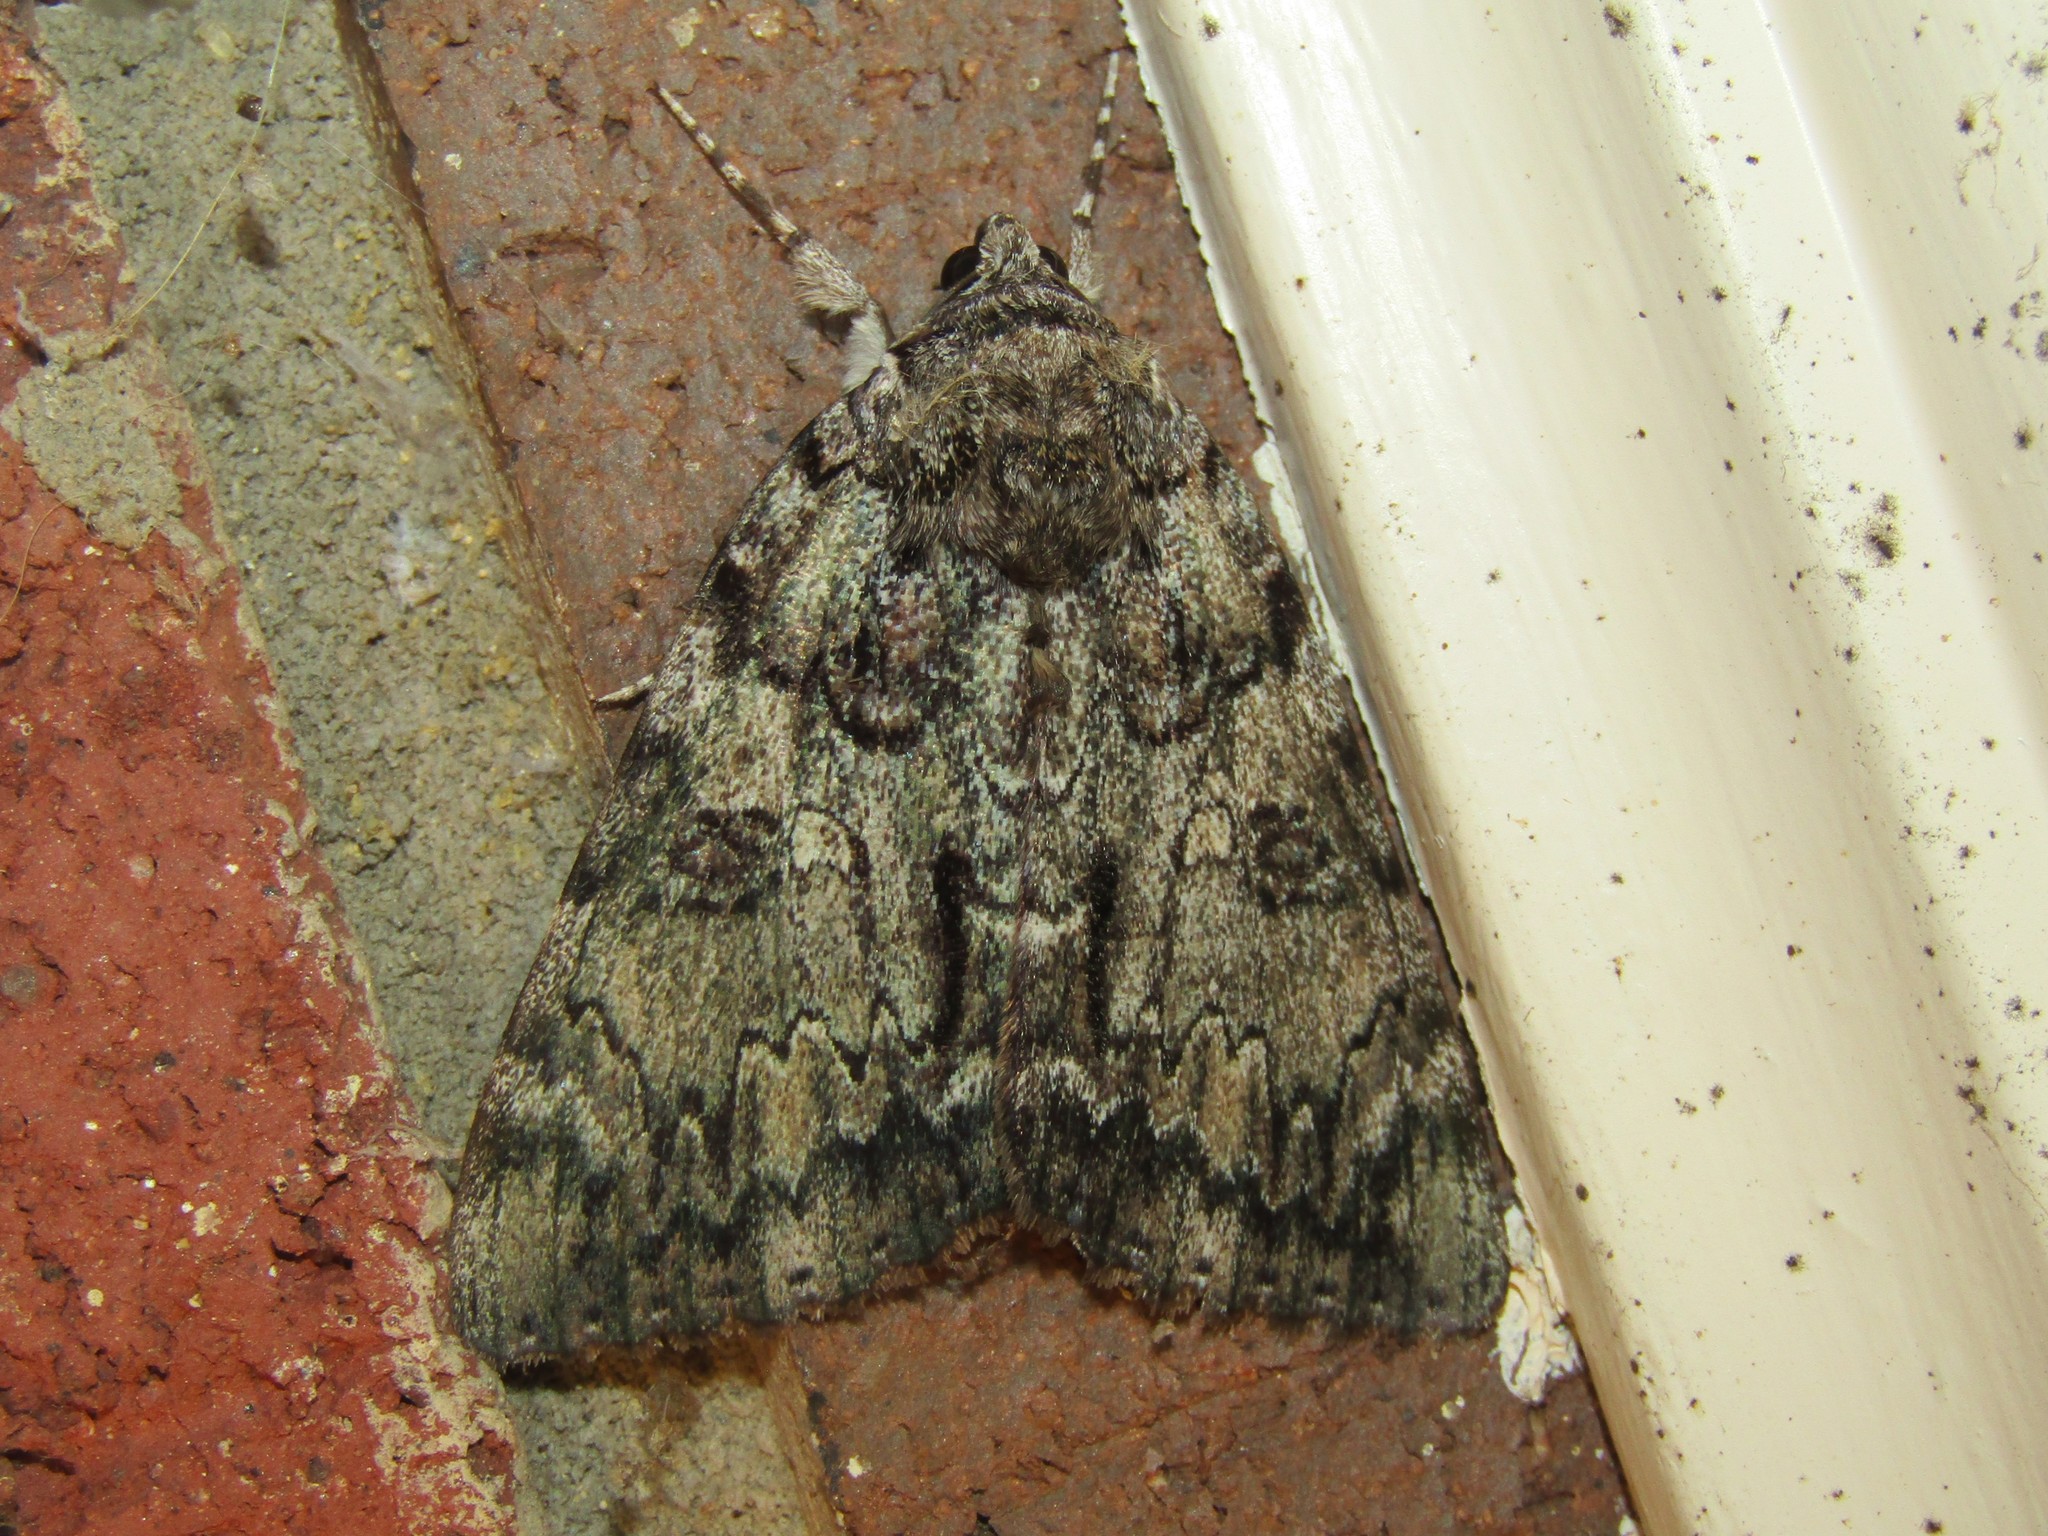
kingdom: Animalia
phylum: Arthropoda
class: Insecta
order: Lepidoptera
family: Erebidae
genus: Catocala
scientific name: Catocala palaeogama
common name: Oldwife underwing
